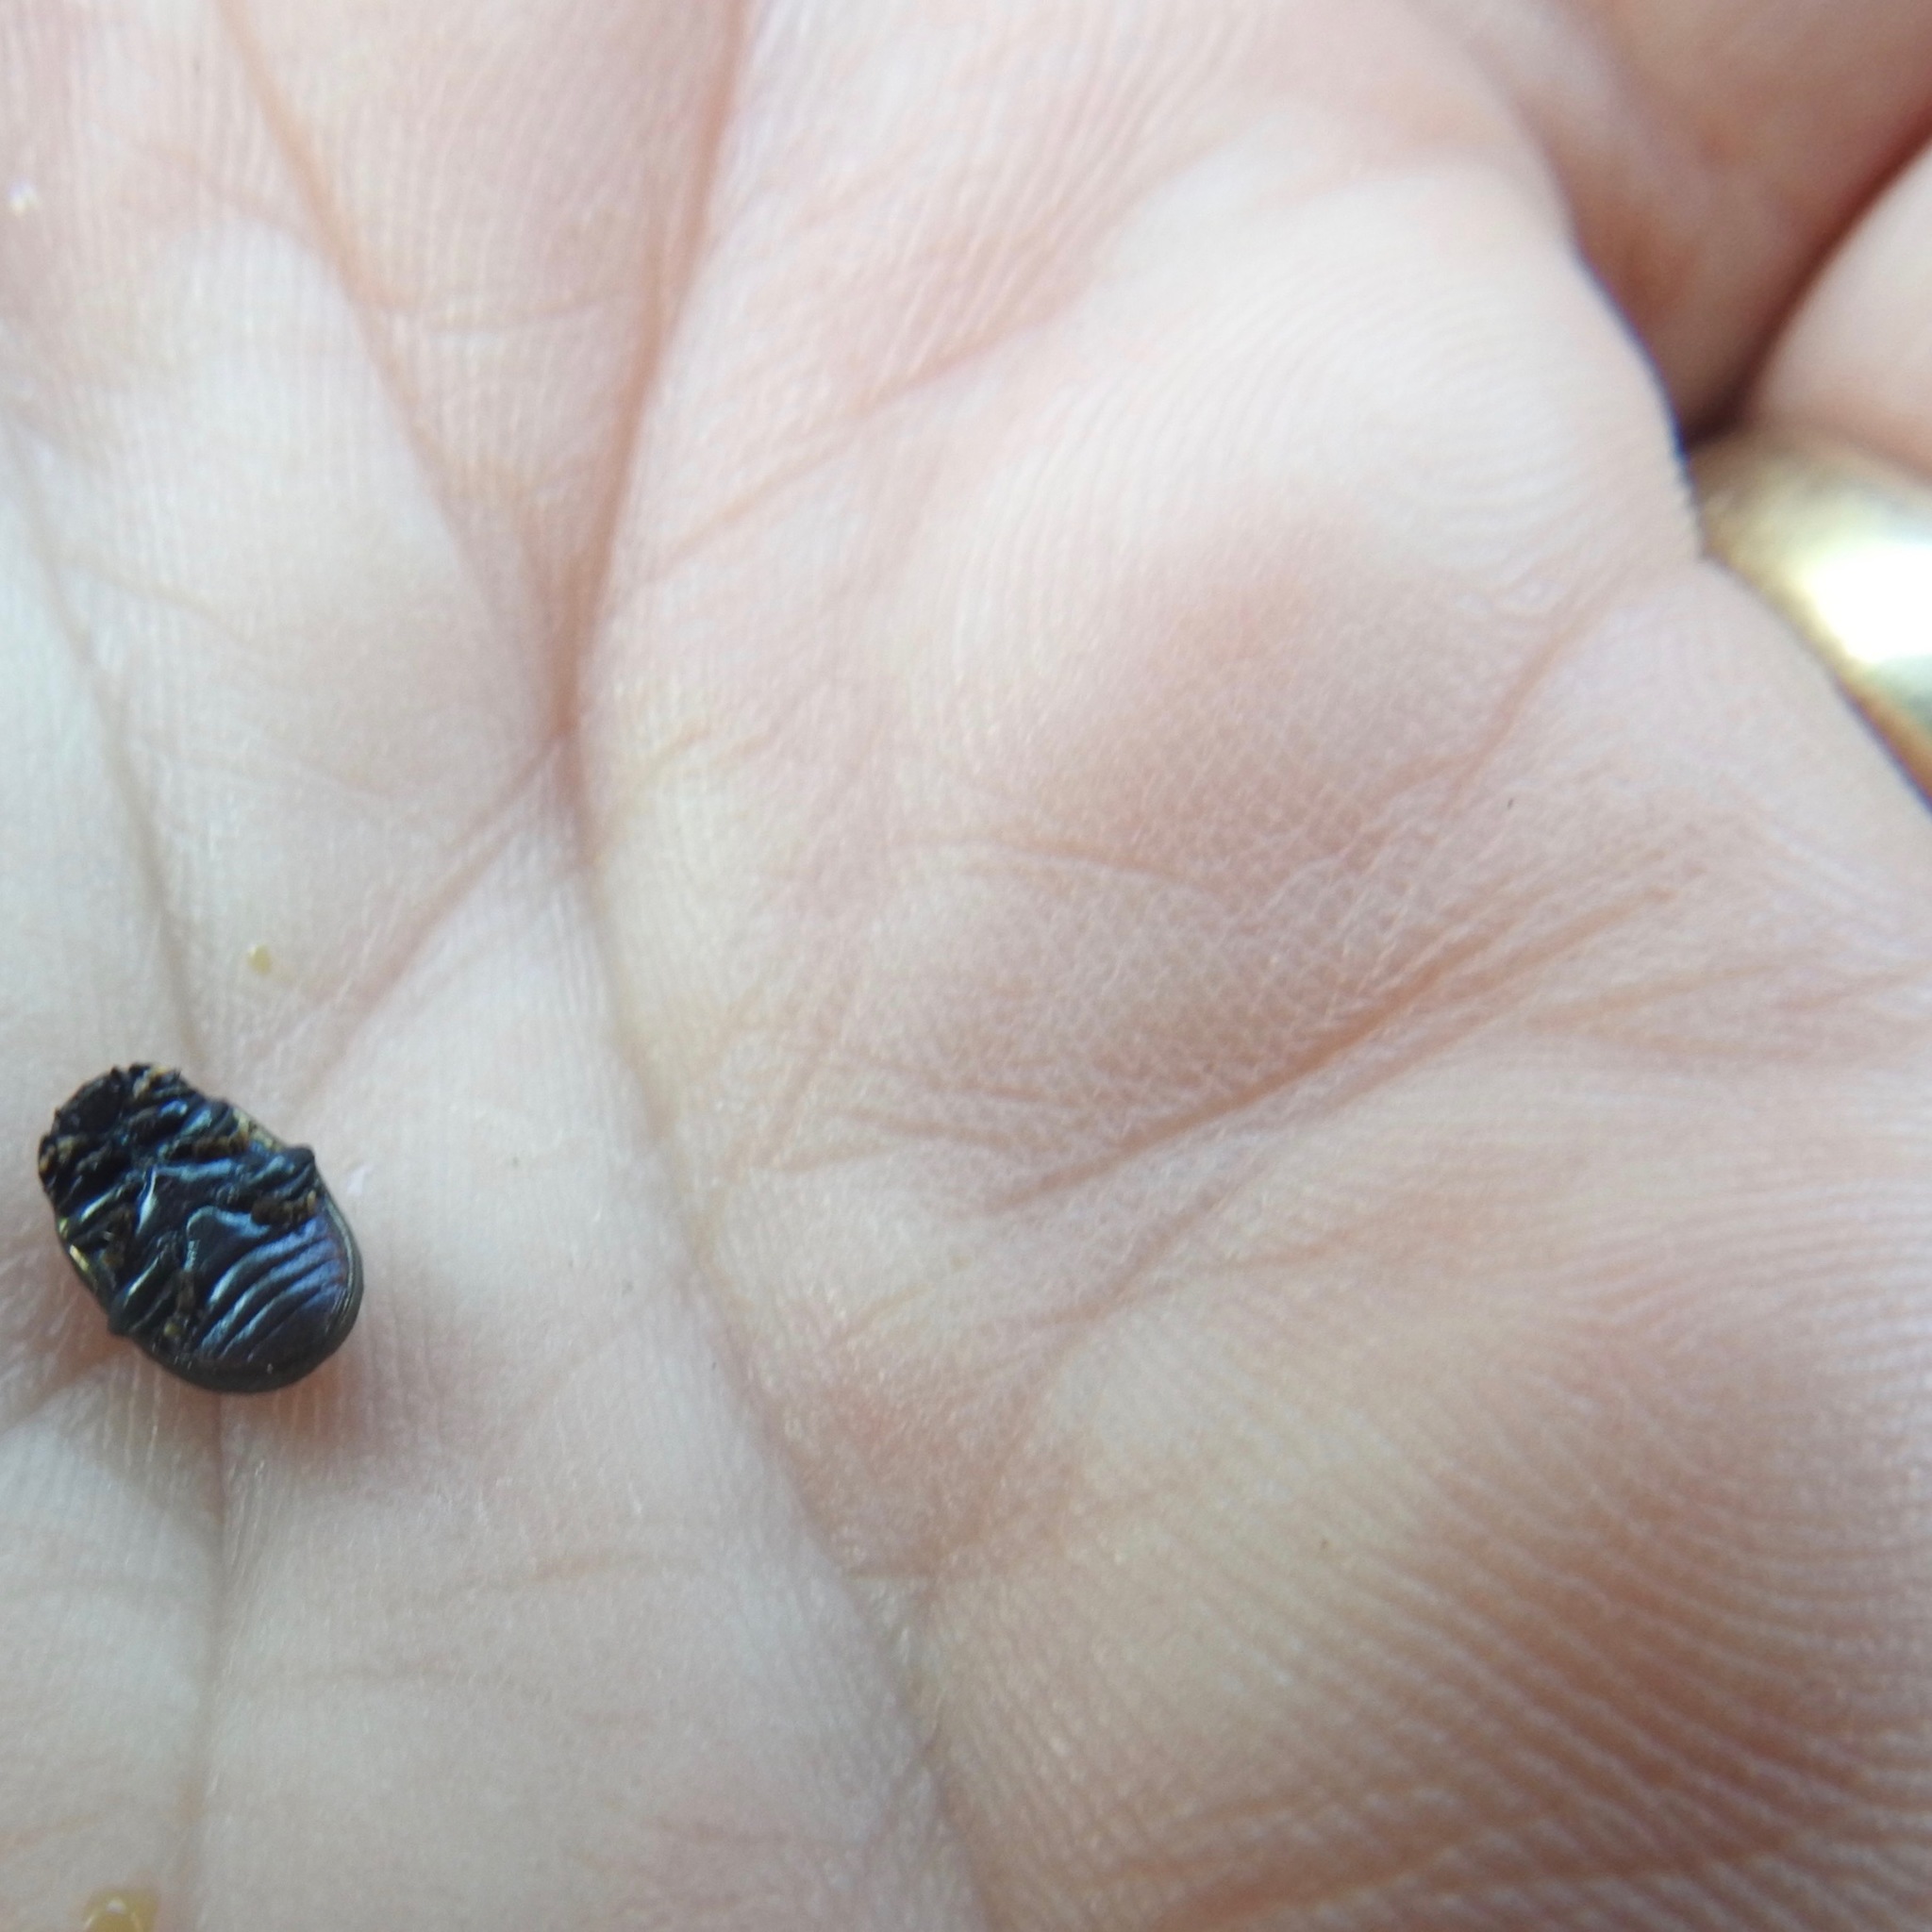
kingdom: Animalia
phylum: Arthropoda
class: Insecta
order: Coleoptera
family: Chrysomelidae
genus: Chrysolina
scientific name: Chrysolina hyperici
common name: St. johnswort beetle
